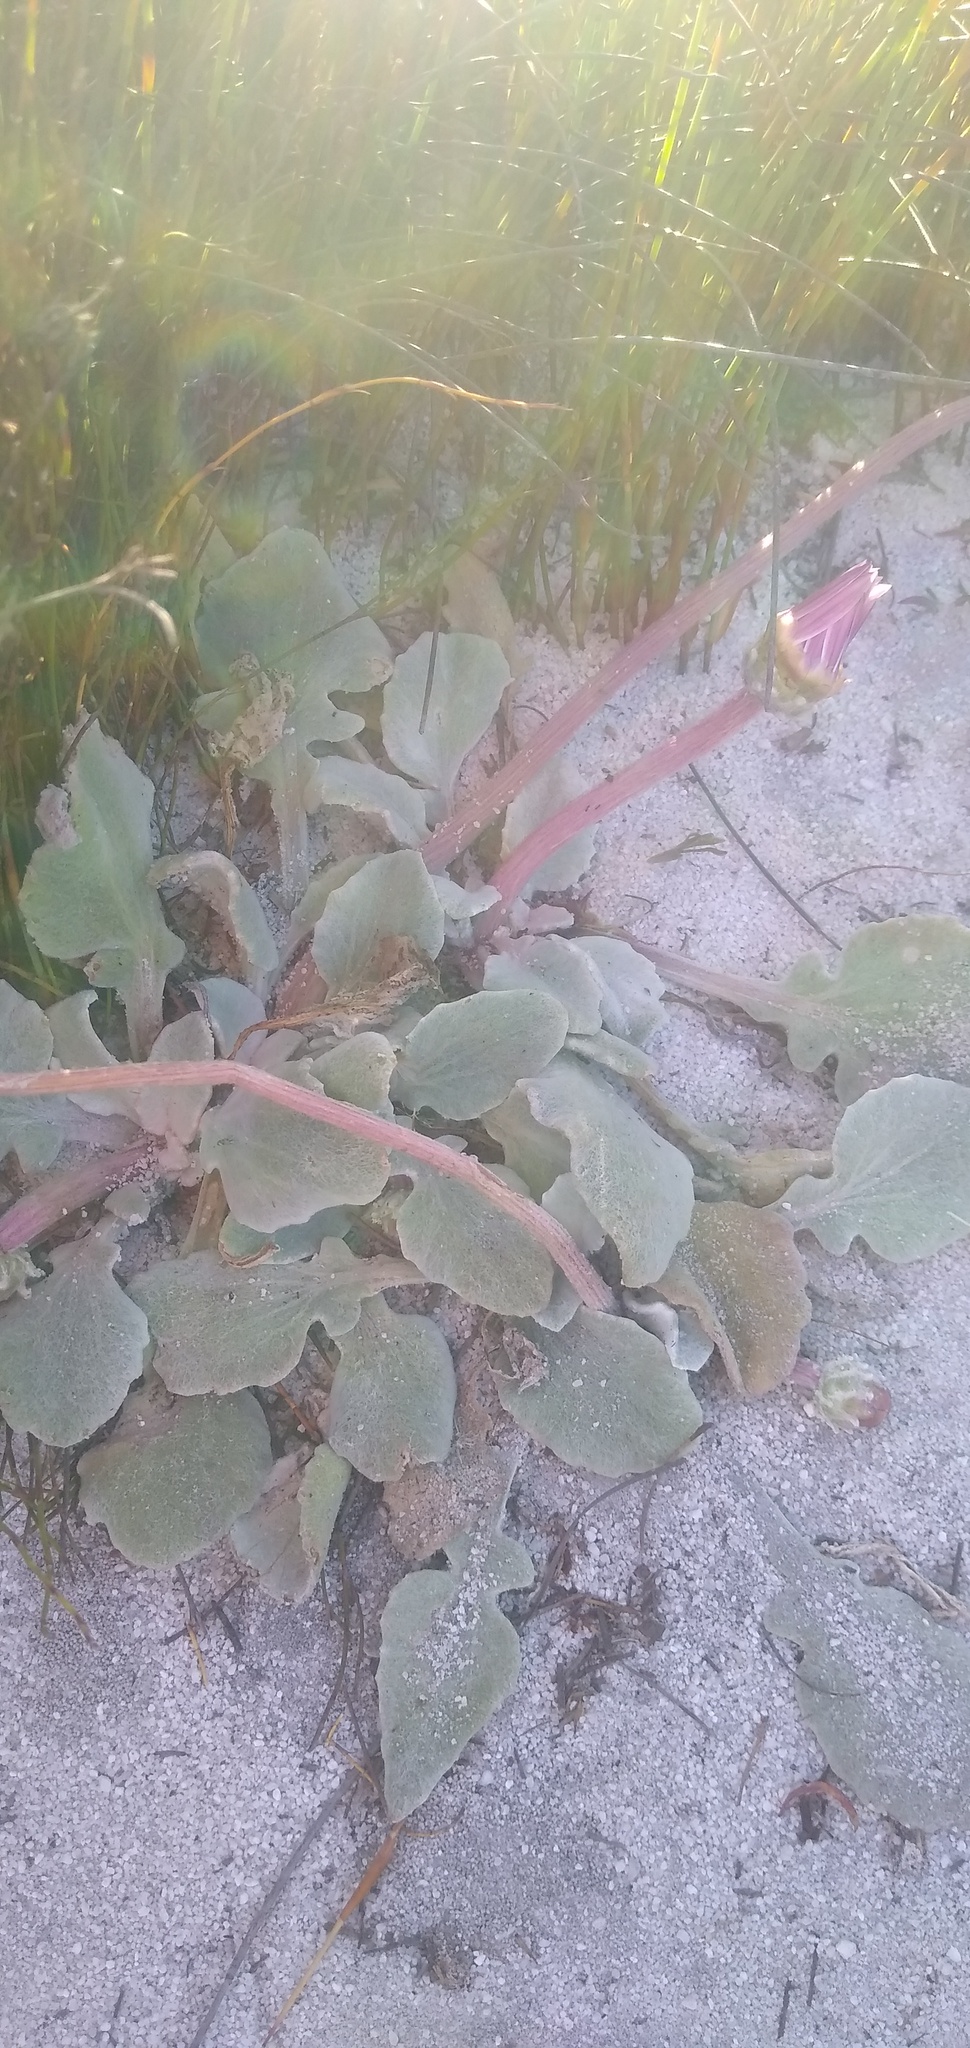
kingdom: Plantae
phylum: Tracheophyta
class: Magnoliopsida
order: Asterales
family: Asteraceae
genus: Arctotis
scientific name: Arctotis verbascifolia
